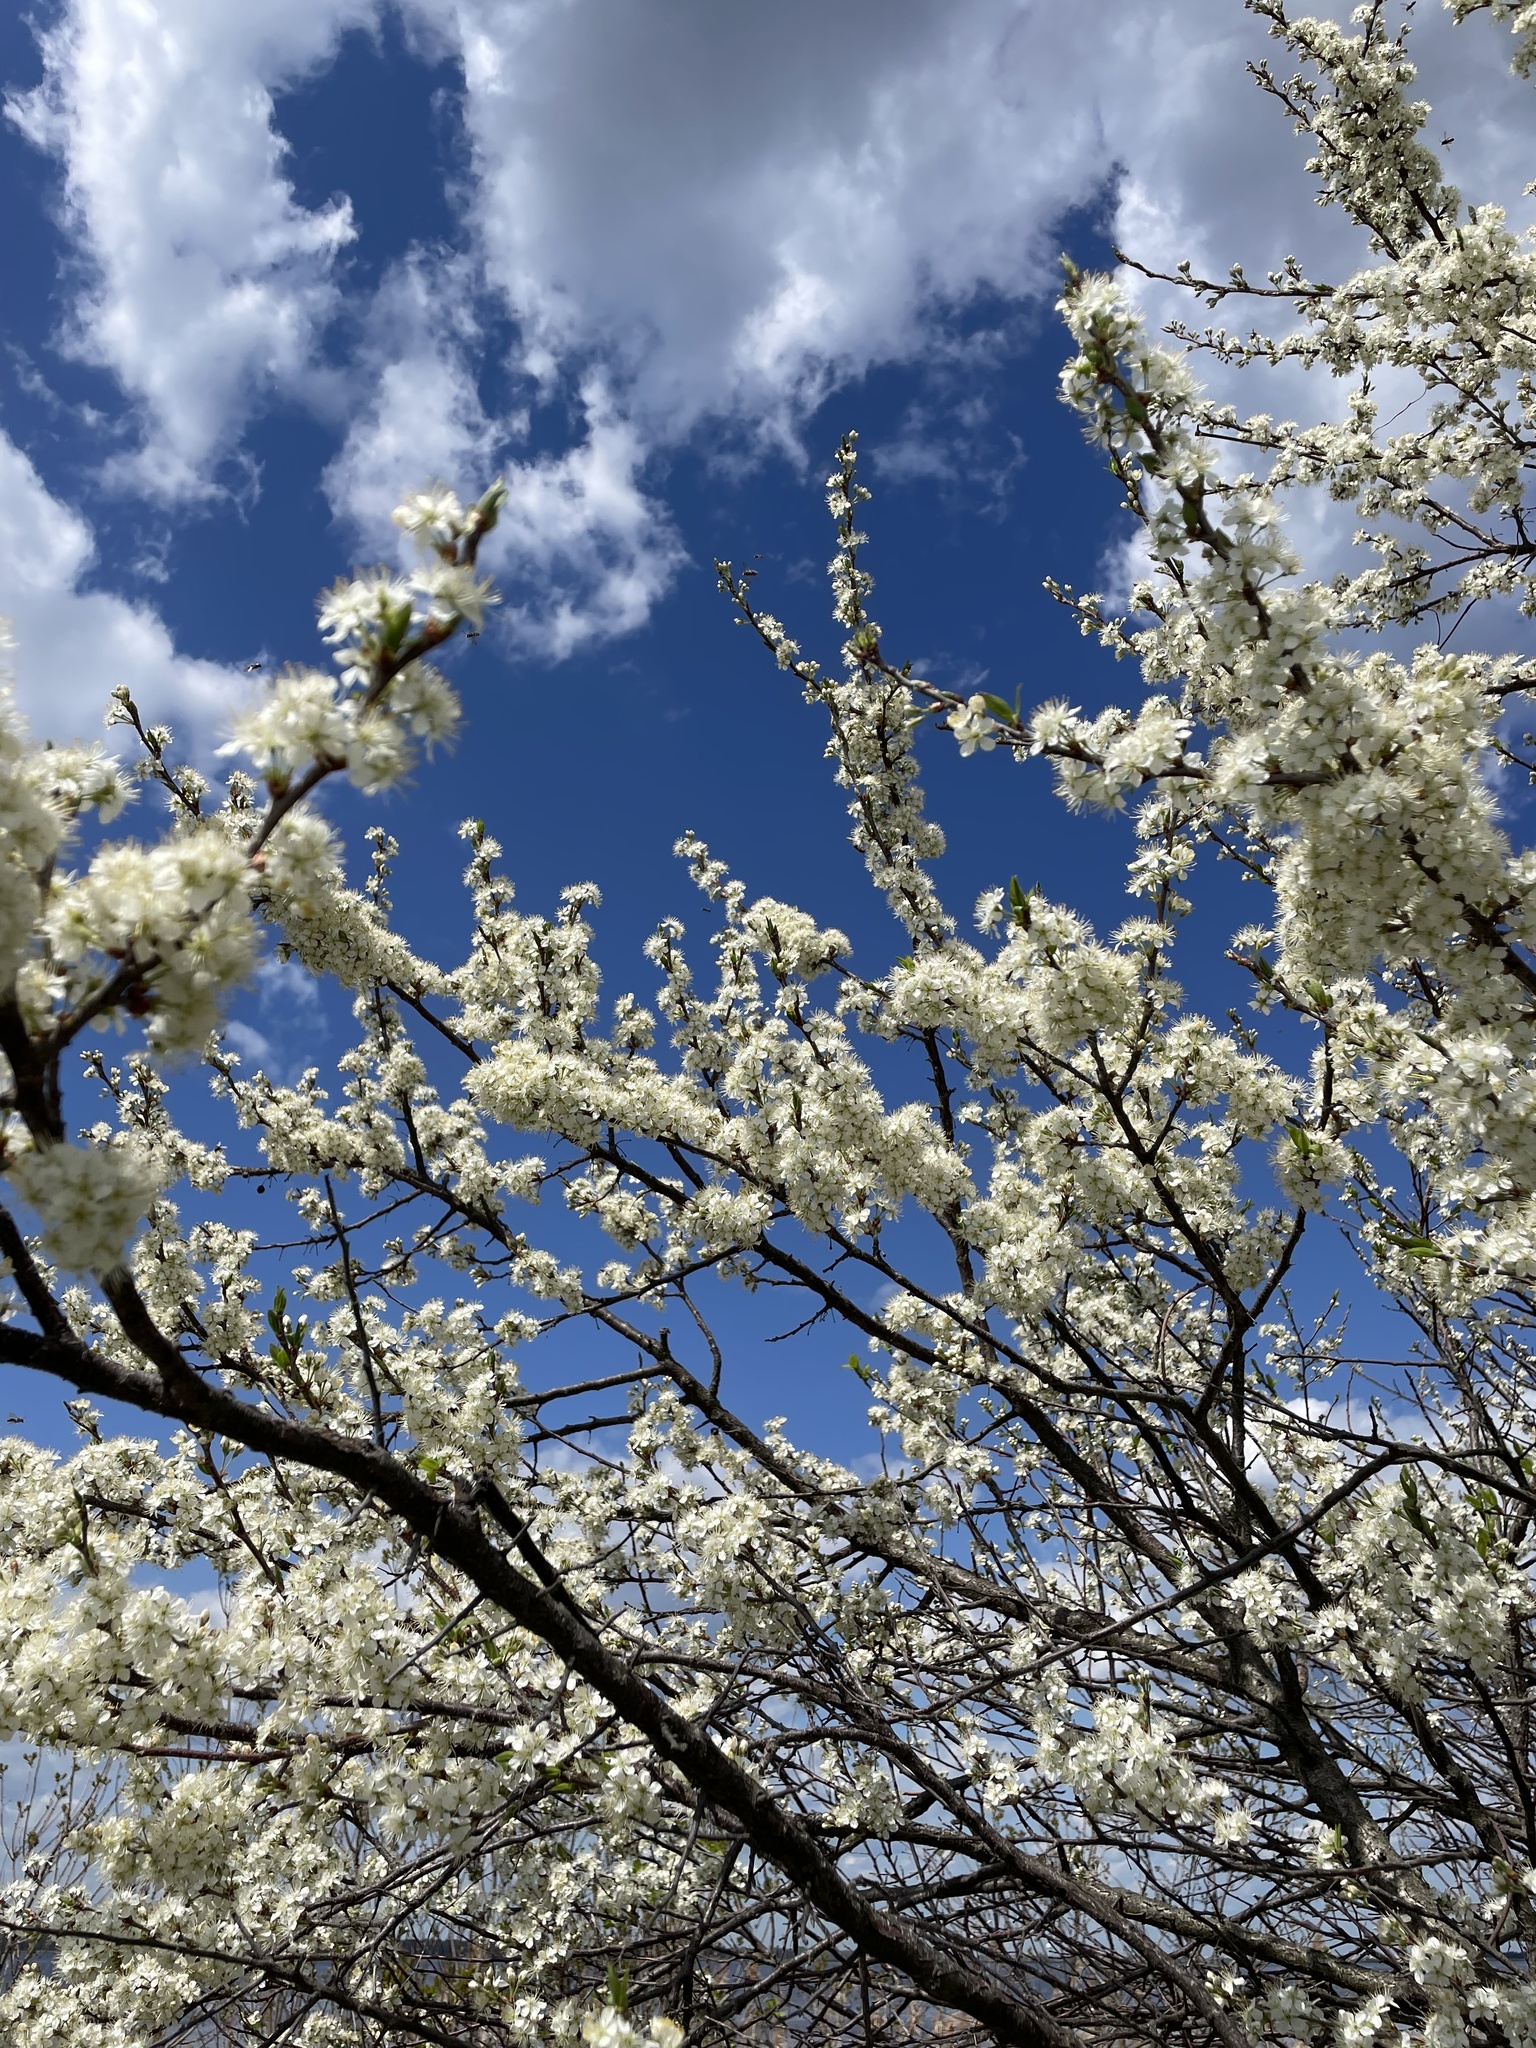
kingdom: Plantae
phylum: Tracheophyta
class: Magnoliopsida
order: Rosales
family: Rosaceae
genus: Prunus
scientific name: Prunus maritima
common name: Beach plum
